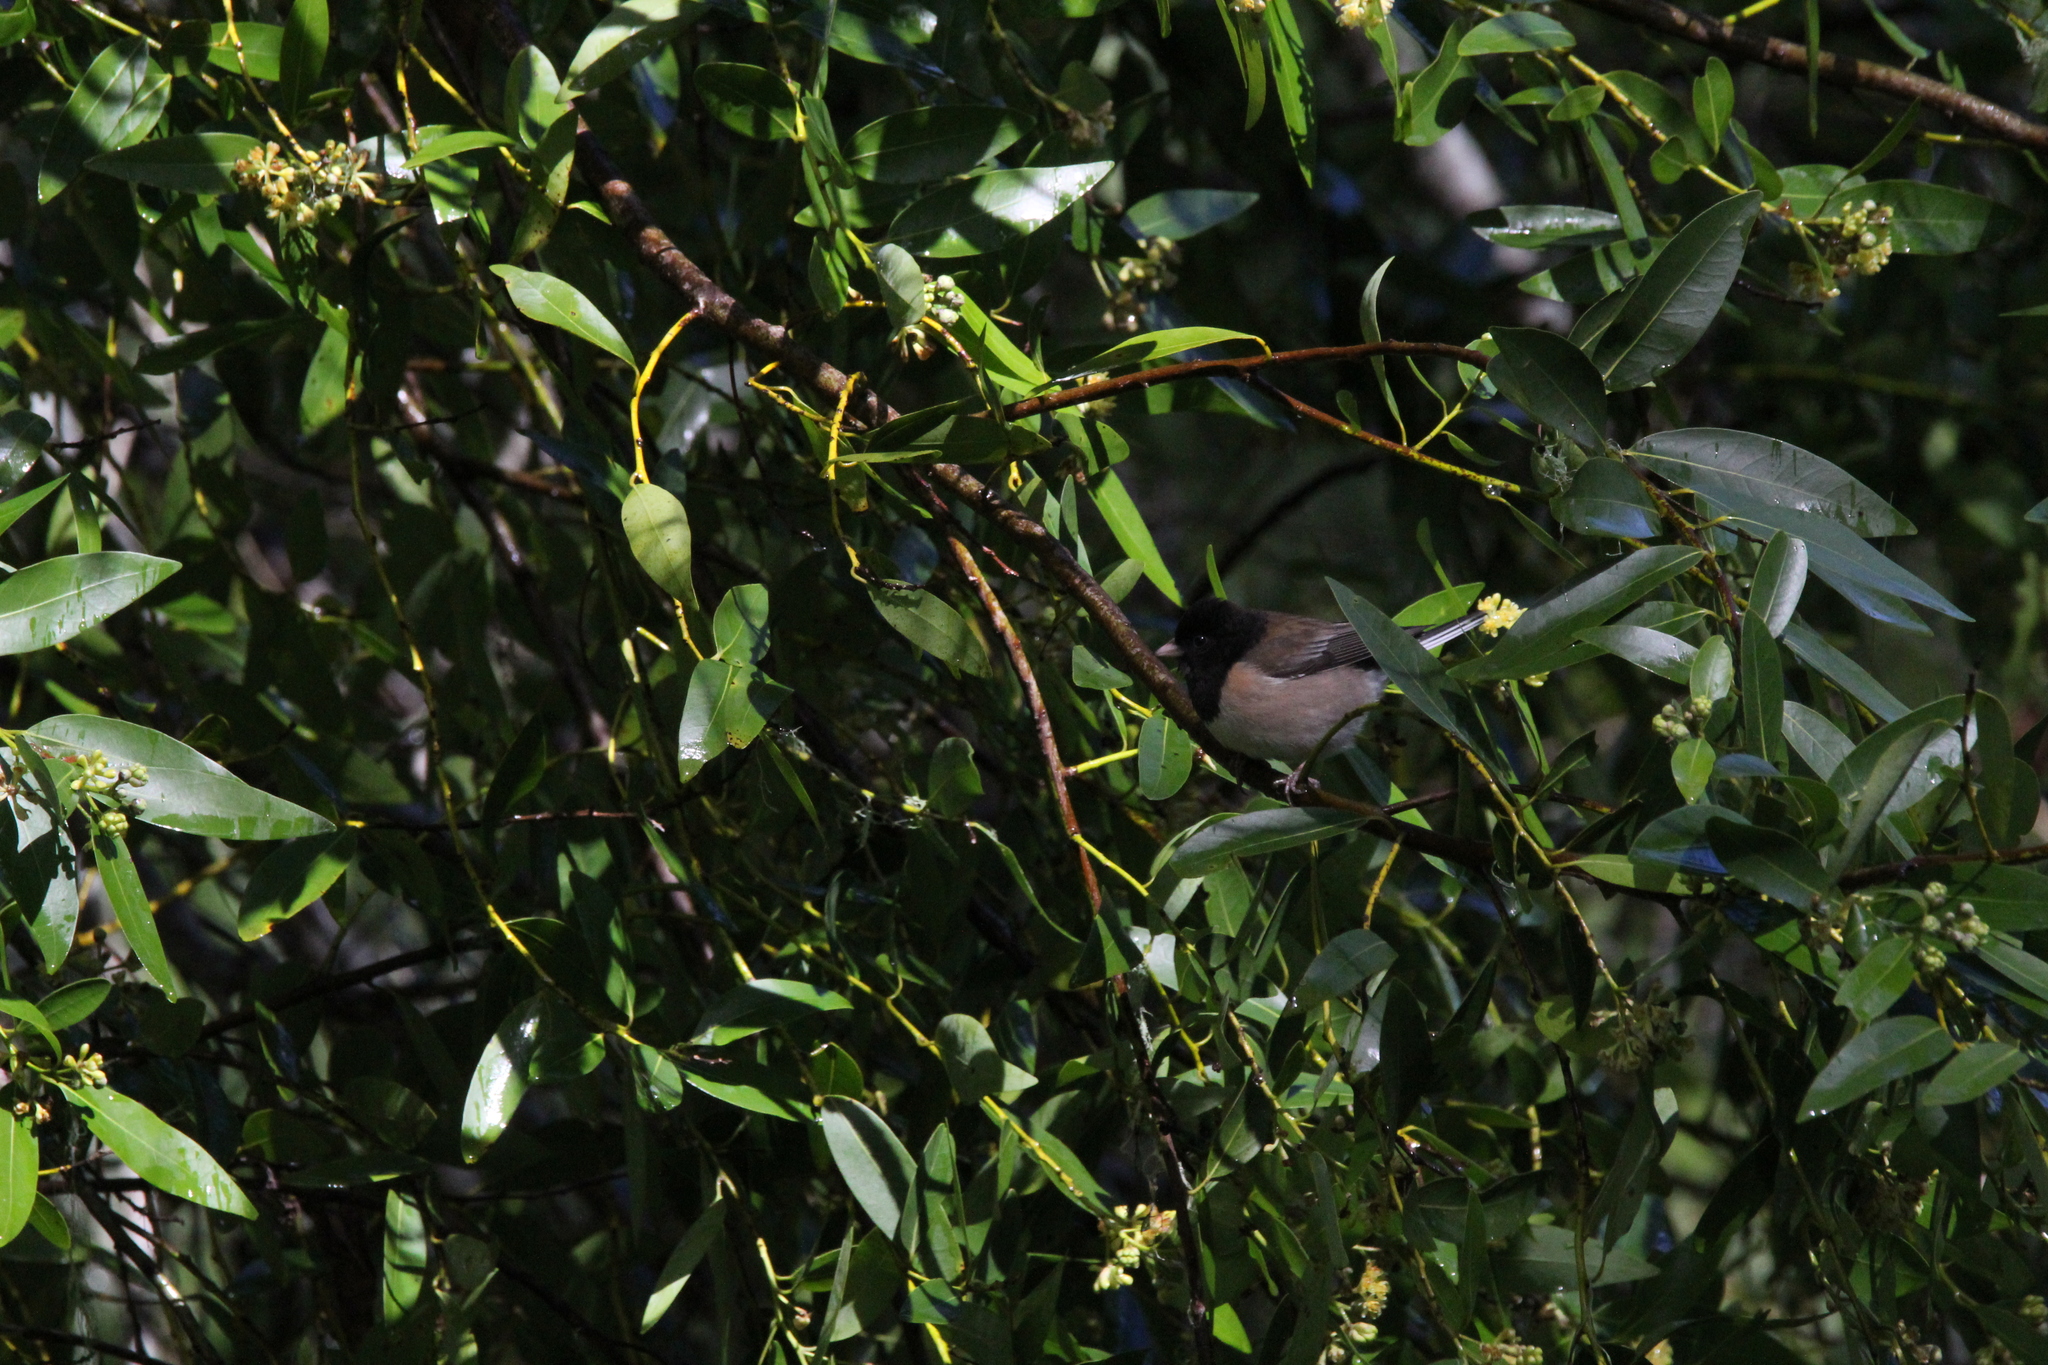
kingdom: Animalia
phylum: Chordata
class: Aves
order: Passeriformes
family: Passerellidae
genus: Junco
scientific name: Junco hyemalis
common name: Dark-eyed junco
